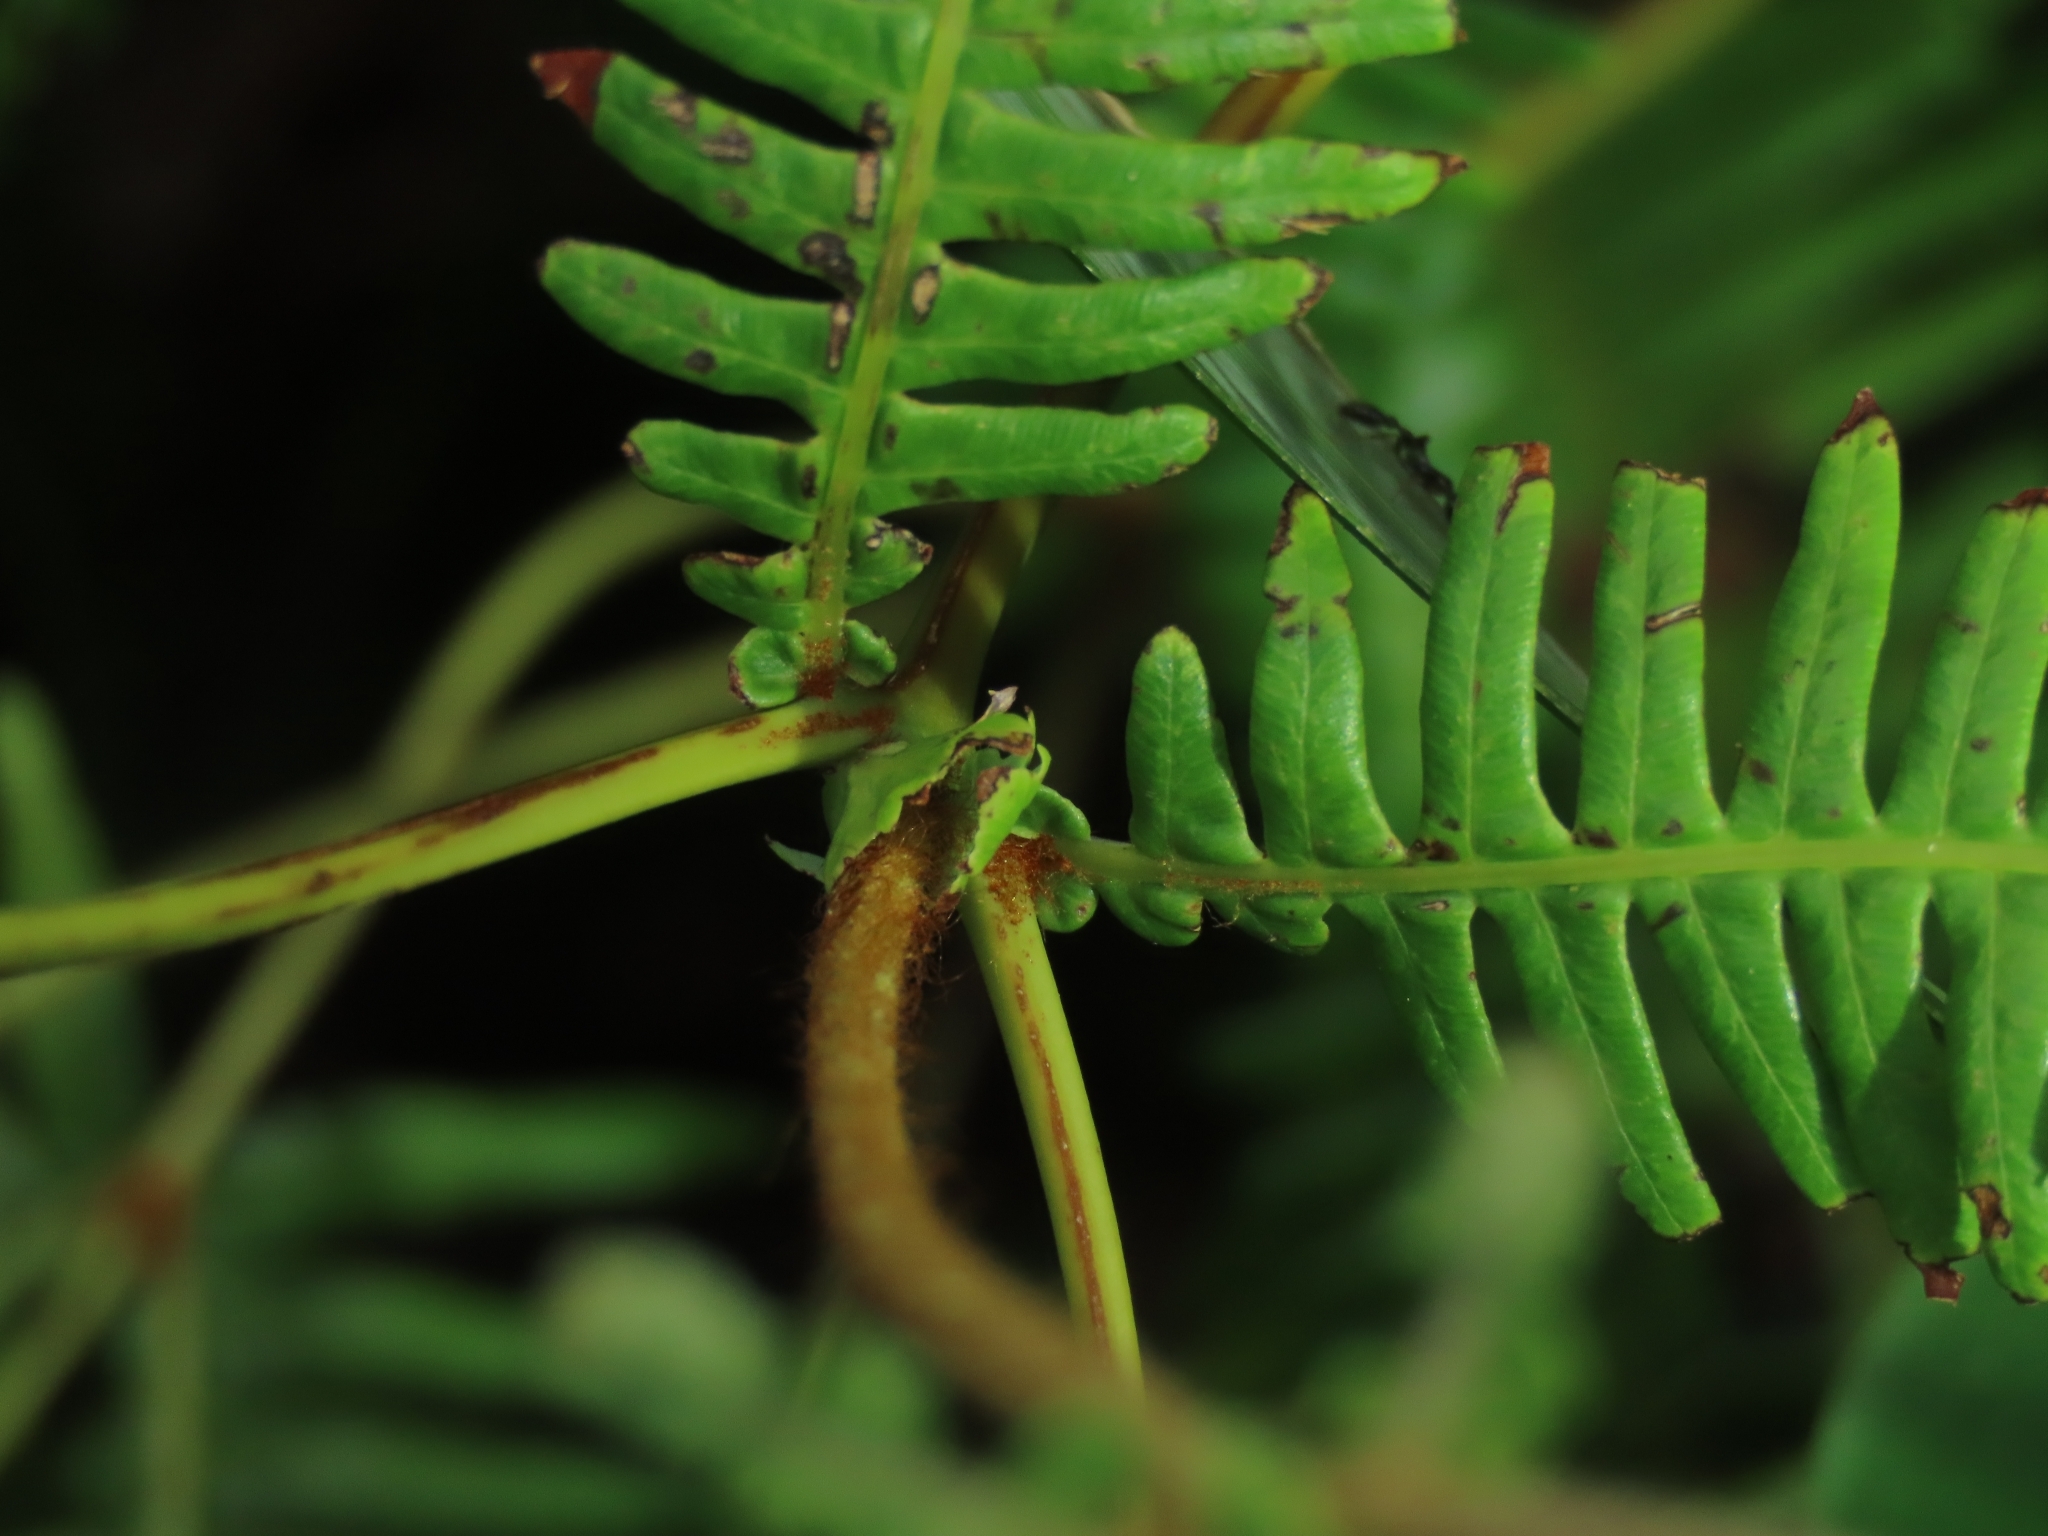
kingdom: Plantae
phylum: Tracheophyta
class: Polypodiopsida
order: Gleicheniales
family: Gleicheniaceae
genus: Dicranopteris
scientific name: Dicranopteris
